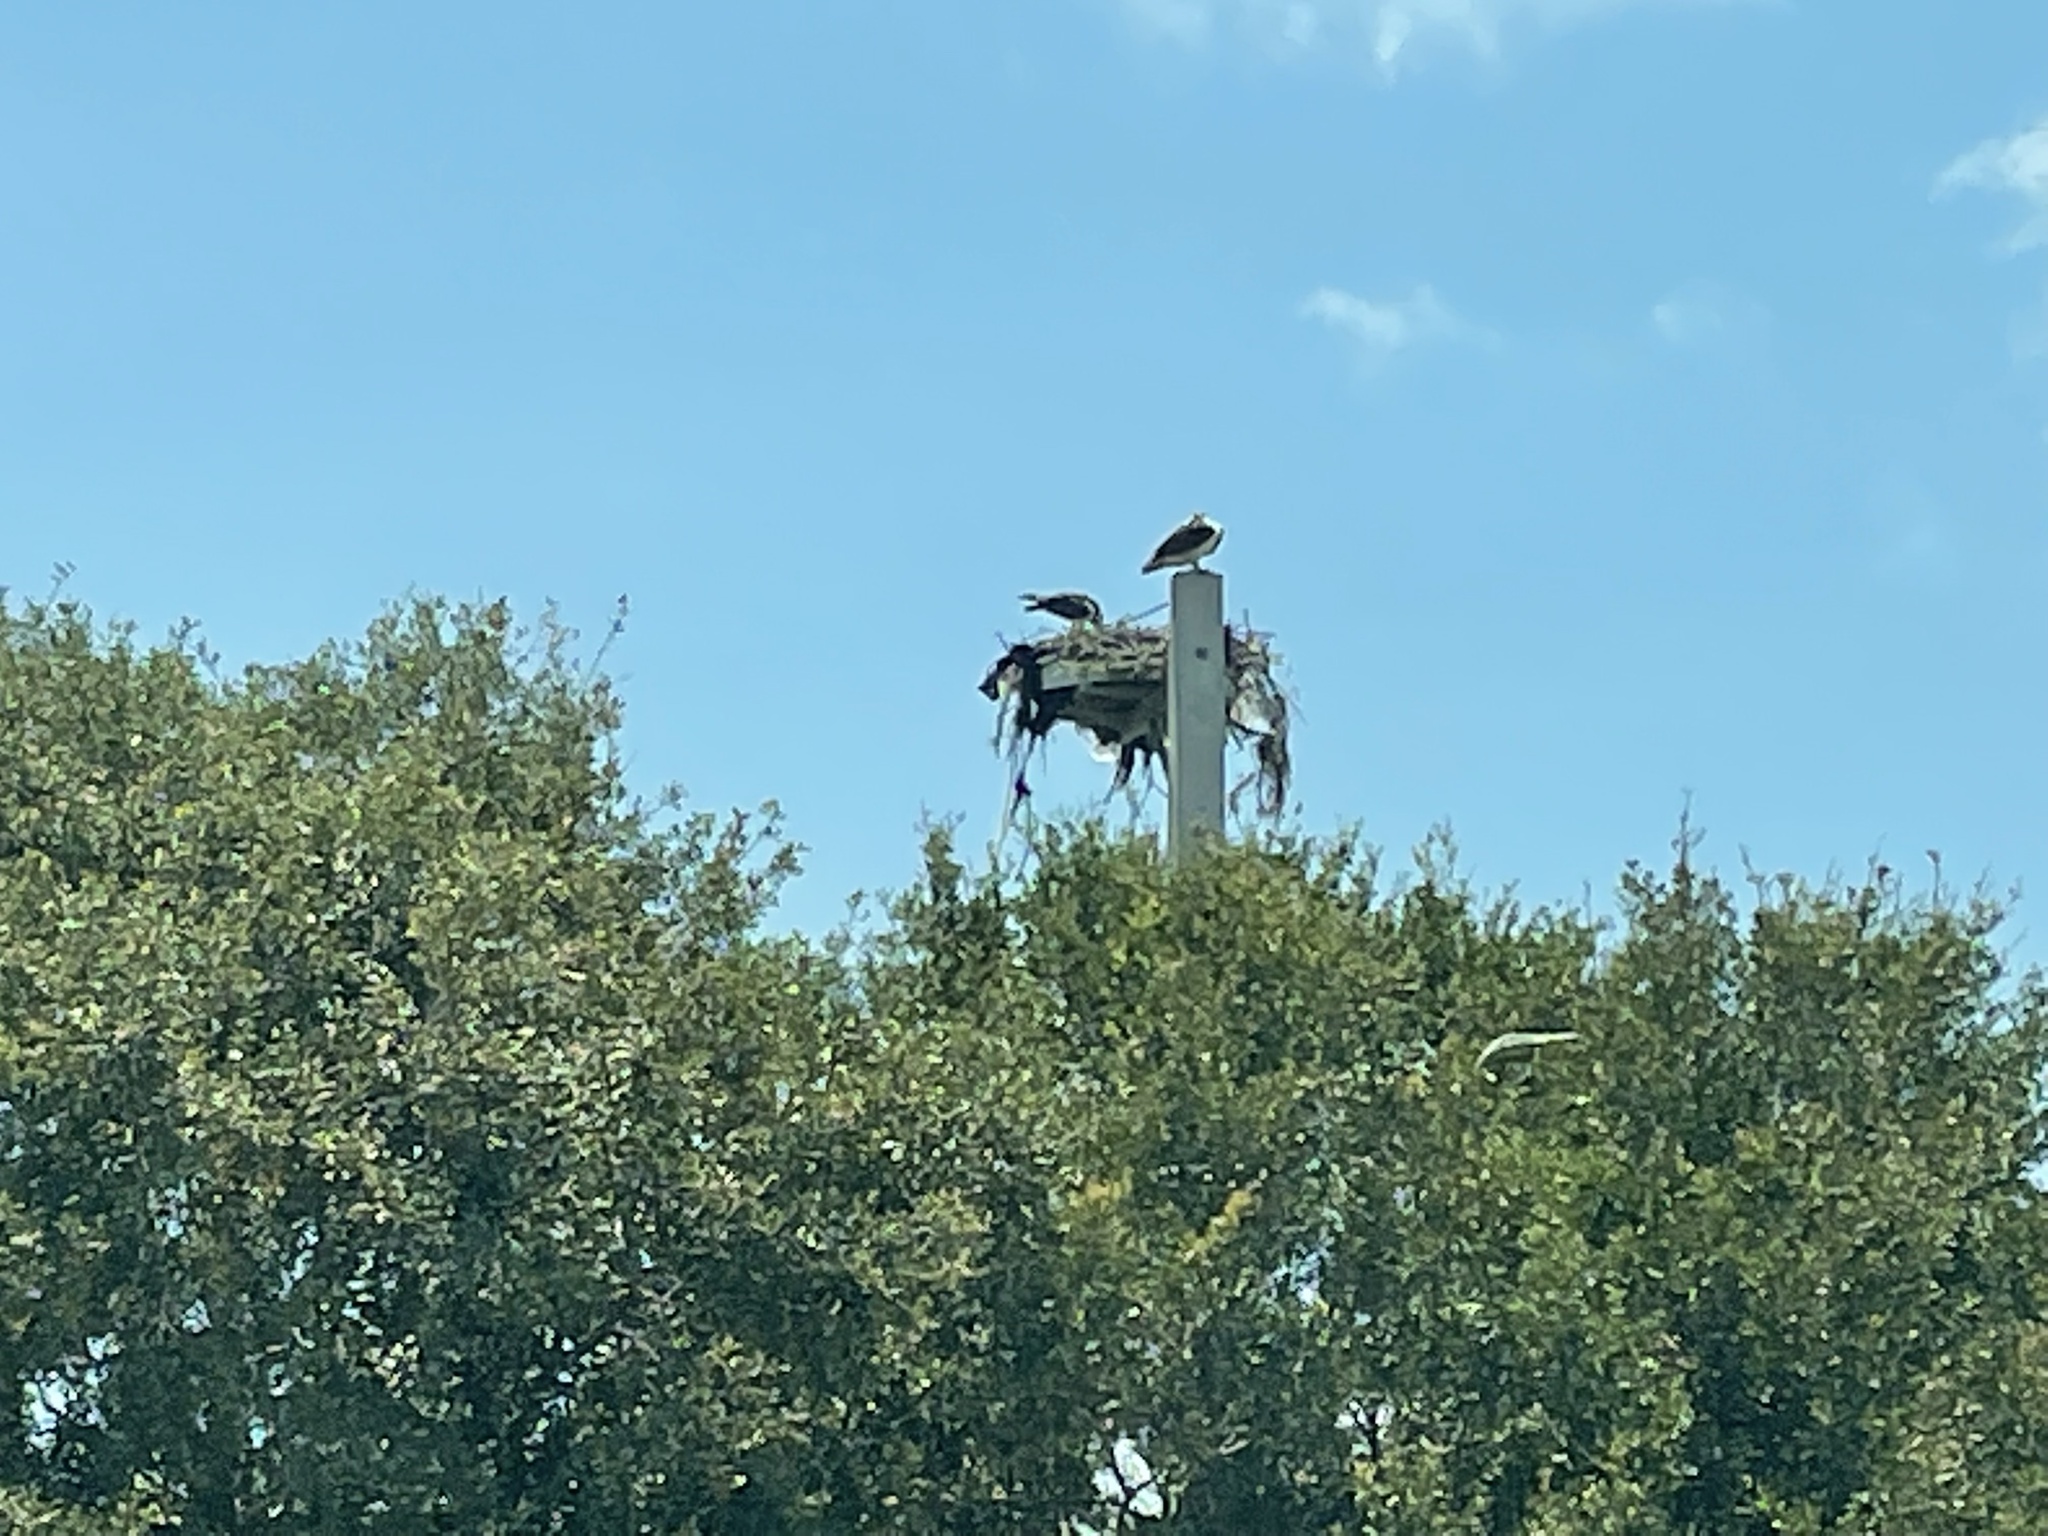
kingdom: Animalia
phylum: Chordata
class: Aves
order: Accipitriformes
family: Pandionidae
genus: Pandion
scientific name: Pandion haliaetus
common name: Osprey
